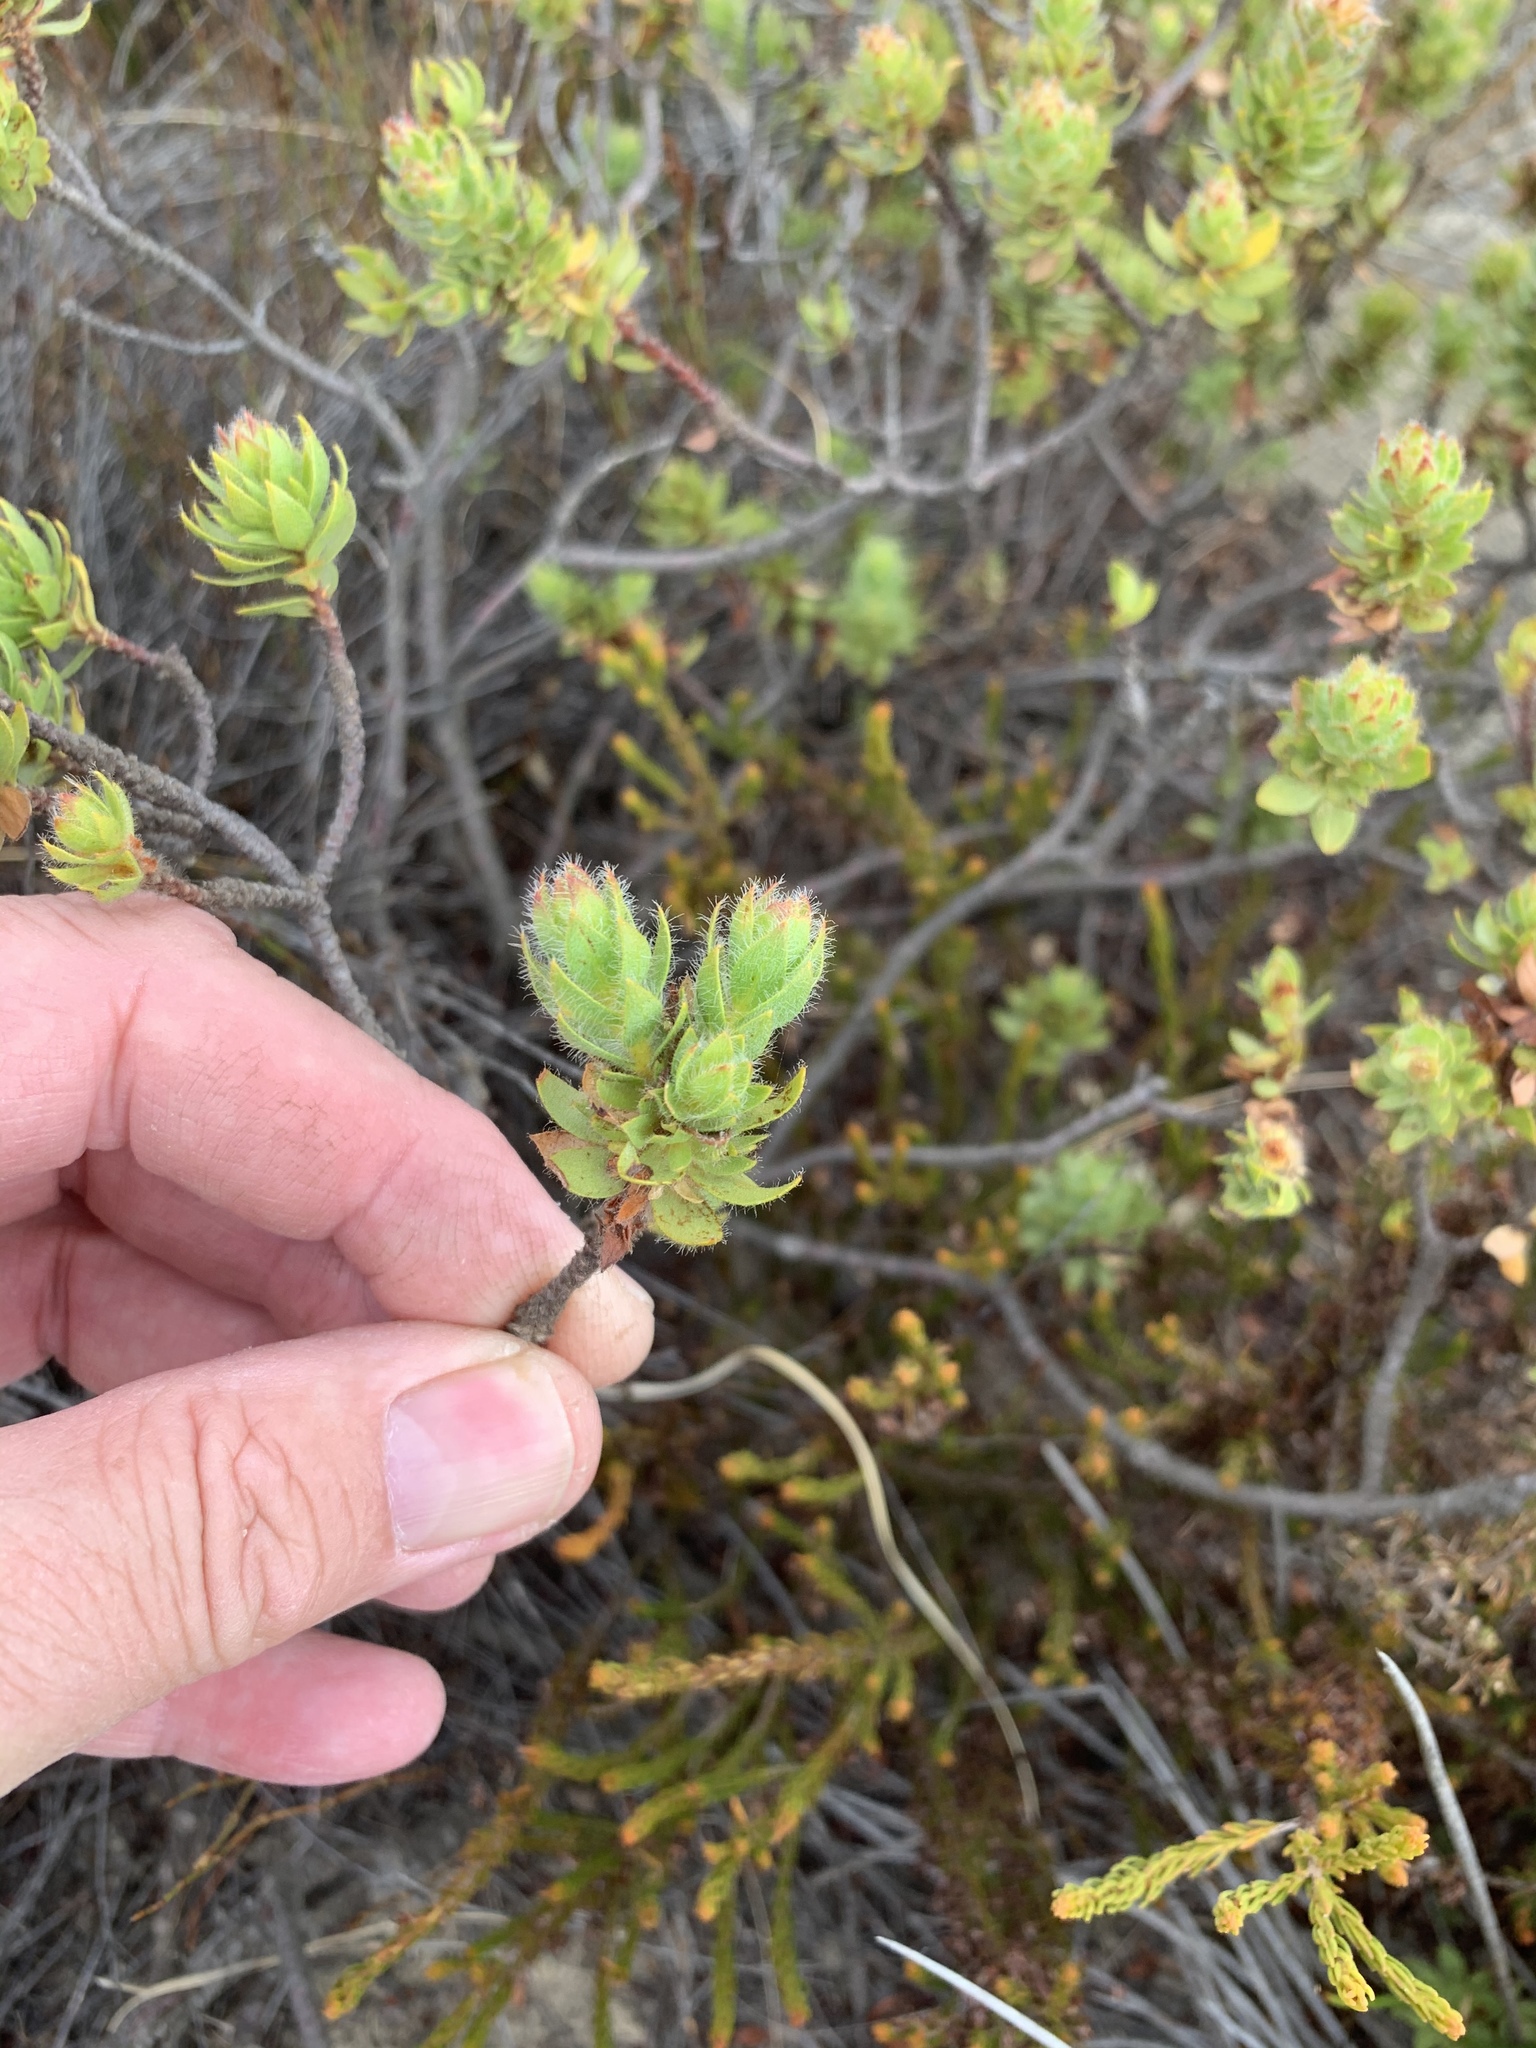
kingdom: Plantae
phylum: Tracheophyta
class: Magnoliopsida
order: Malvales
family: Thymelaeaceae
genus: Gnidia
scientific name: Gnidia ornata
